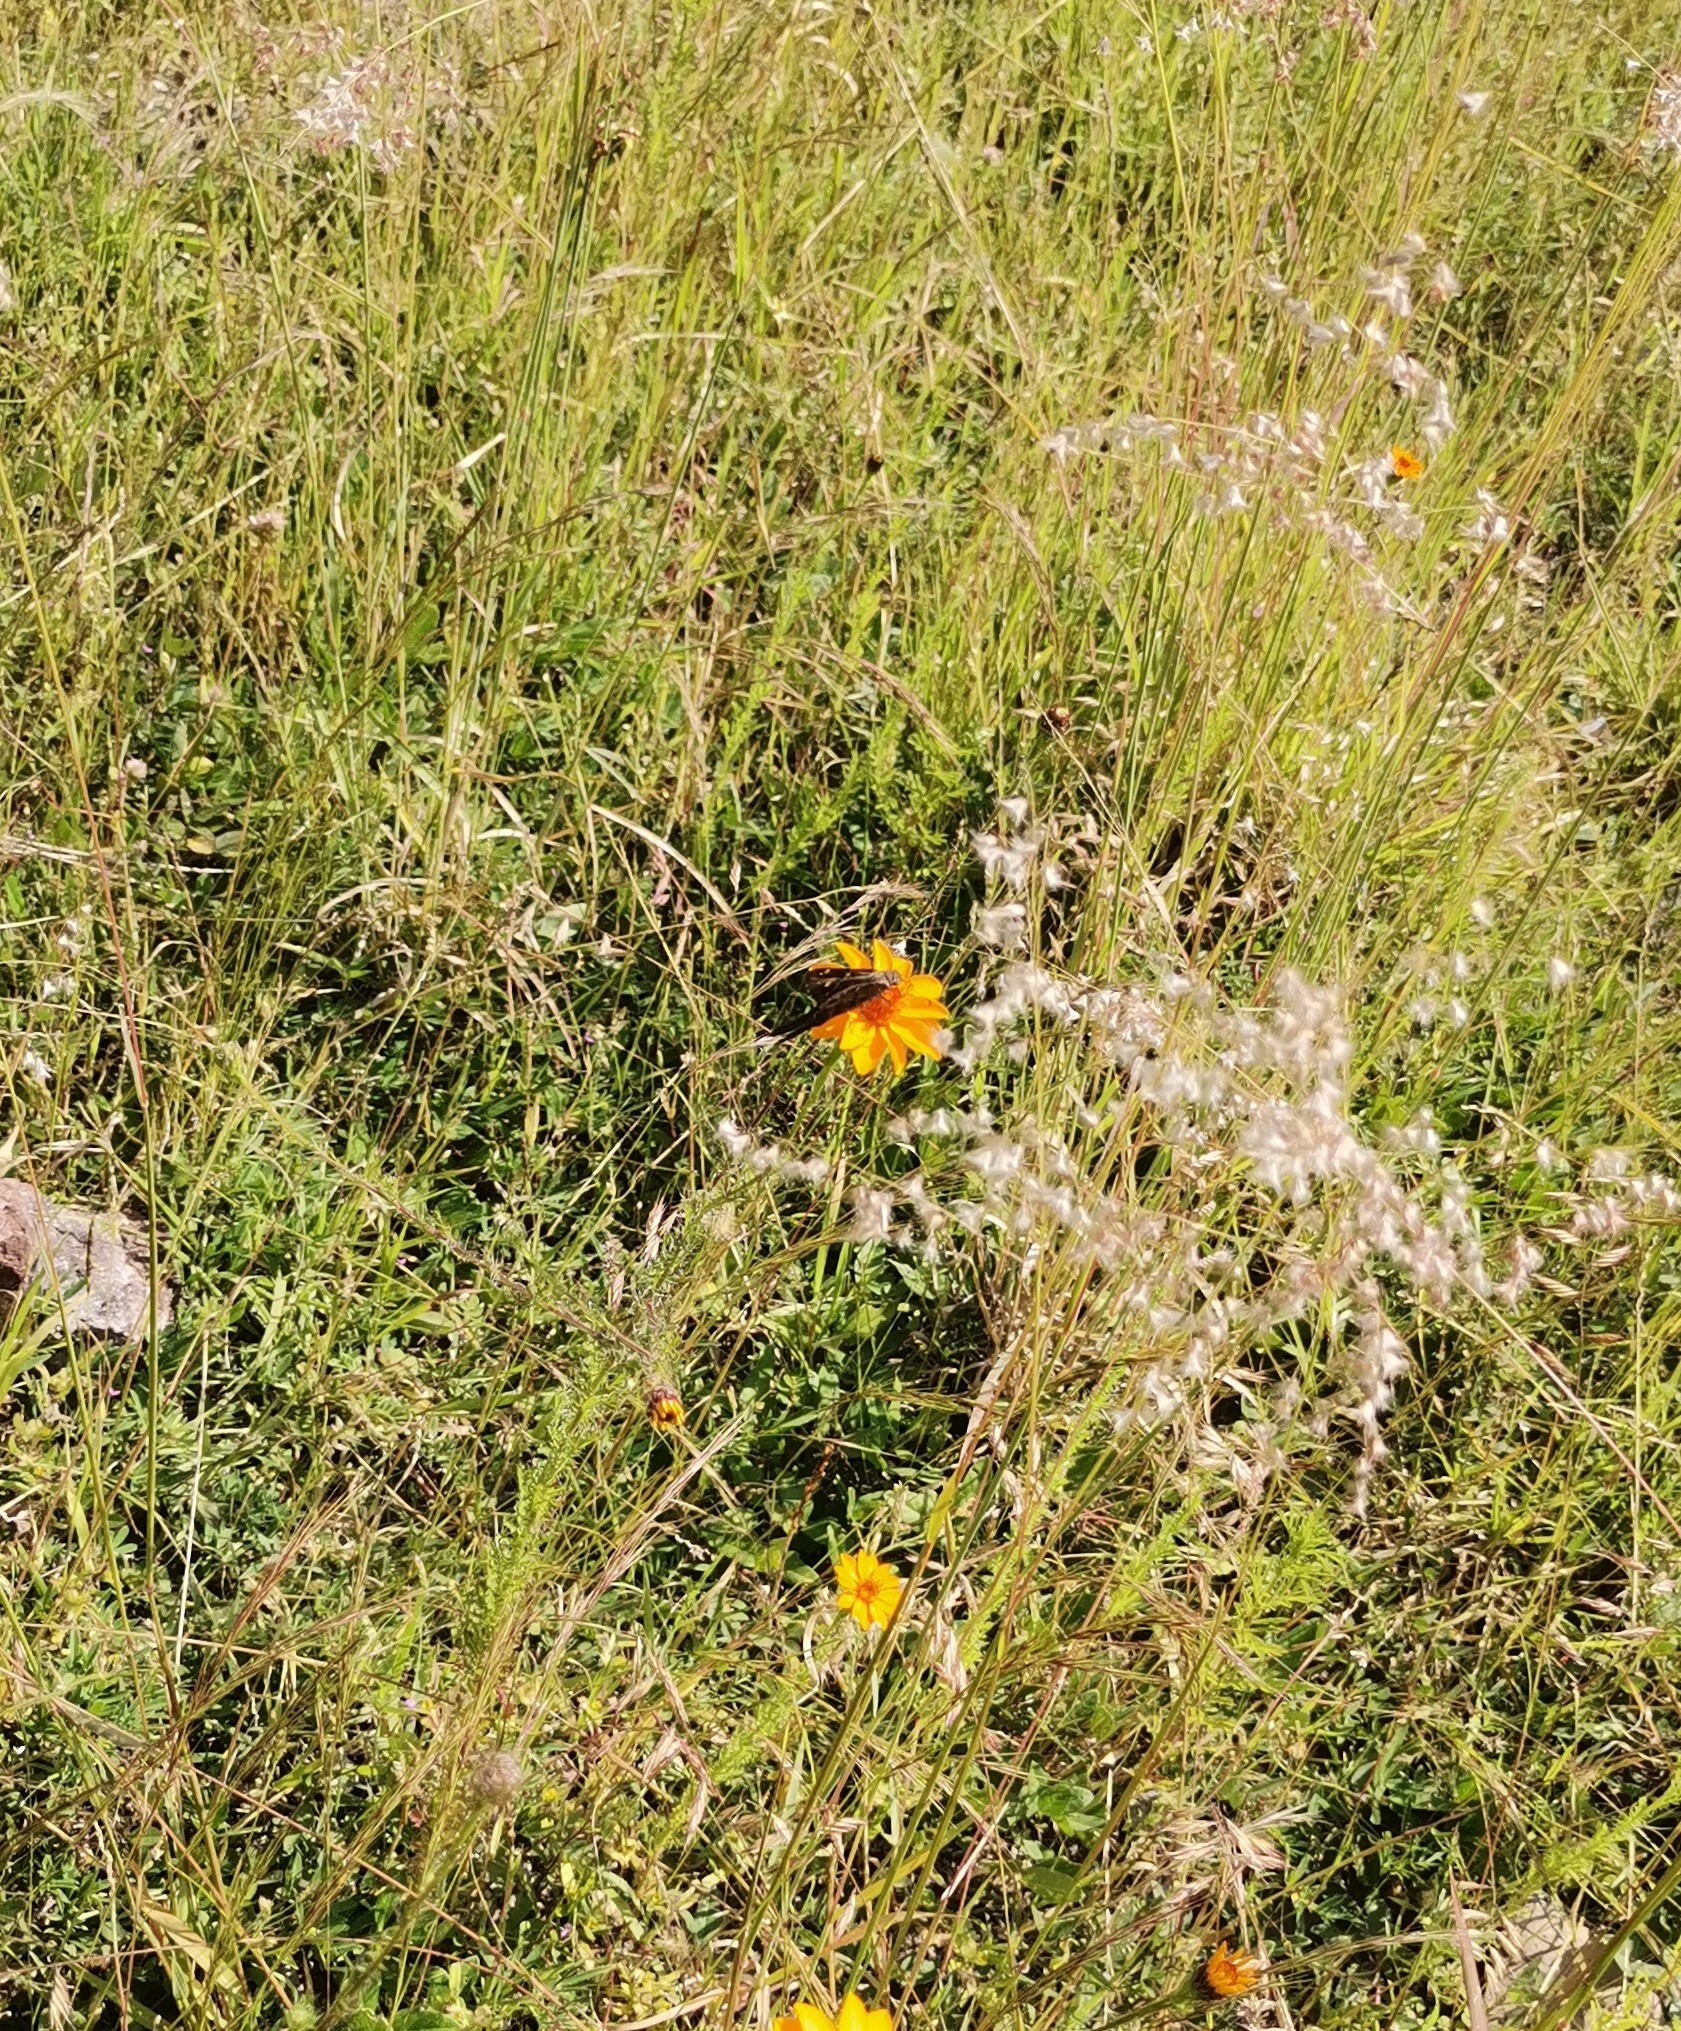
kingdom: Plantae
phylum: Tracheophyta
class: Liliopsida
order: Poales
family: Poaceae
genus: Melinis
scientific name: Melinis repens
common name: Rose natal grass
